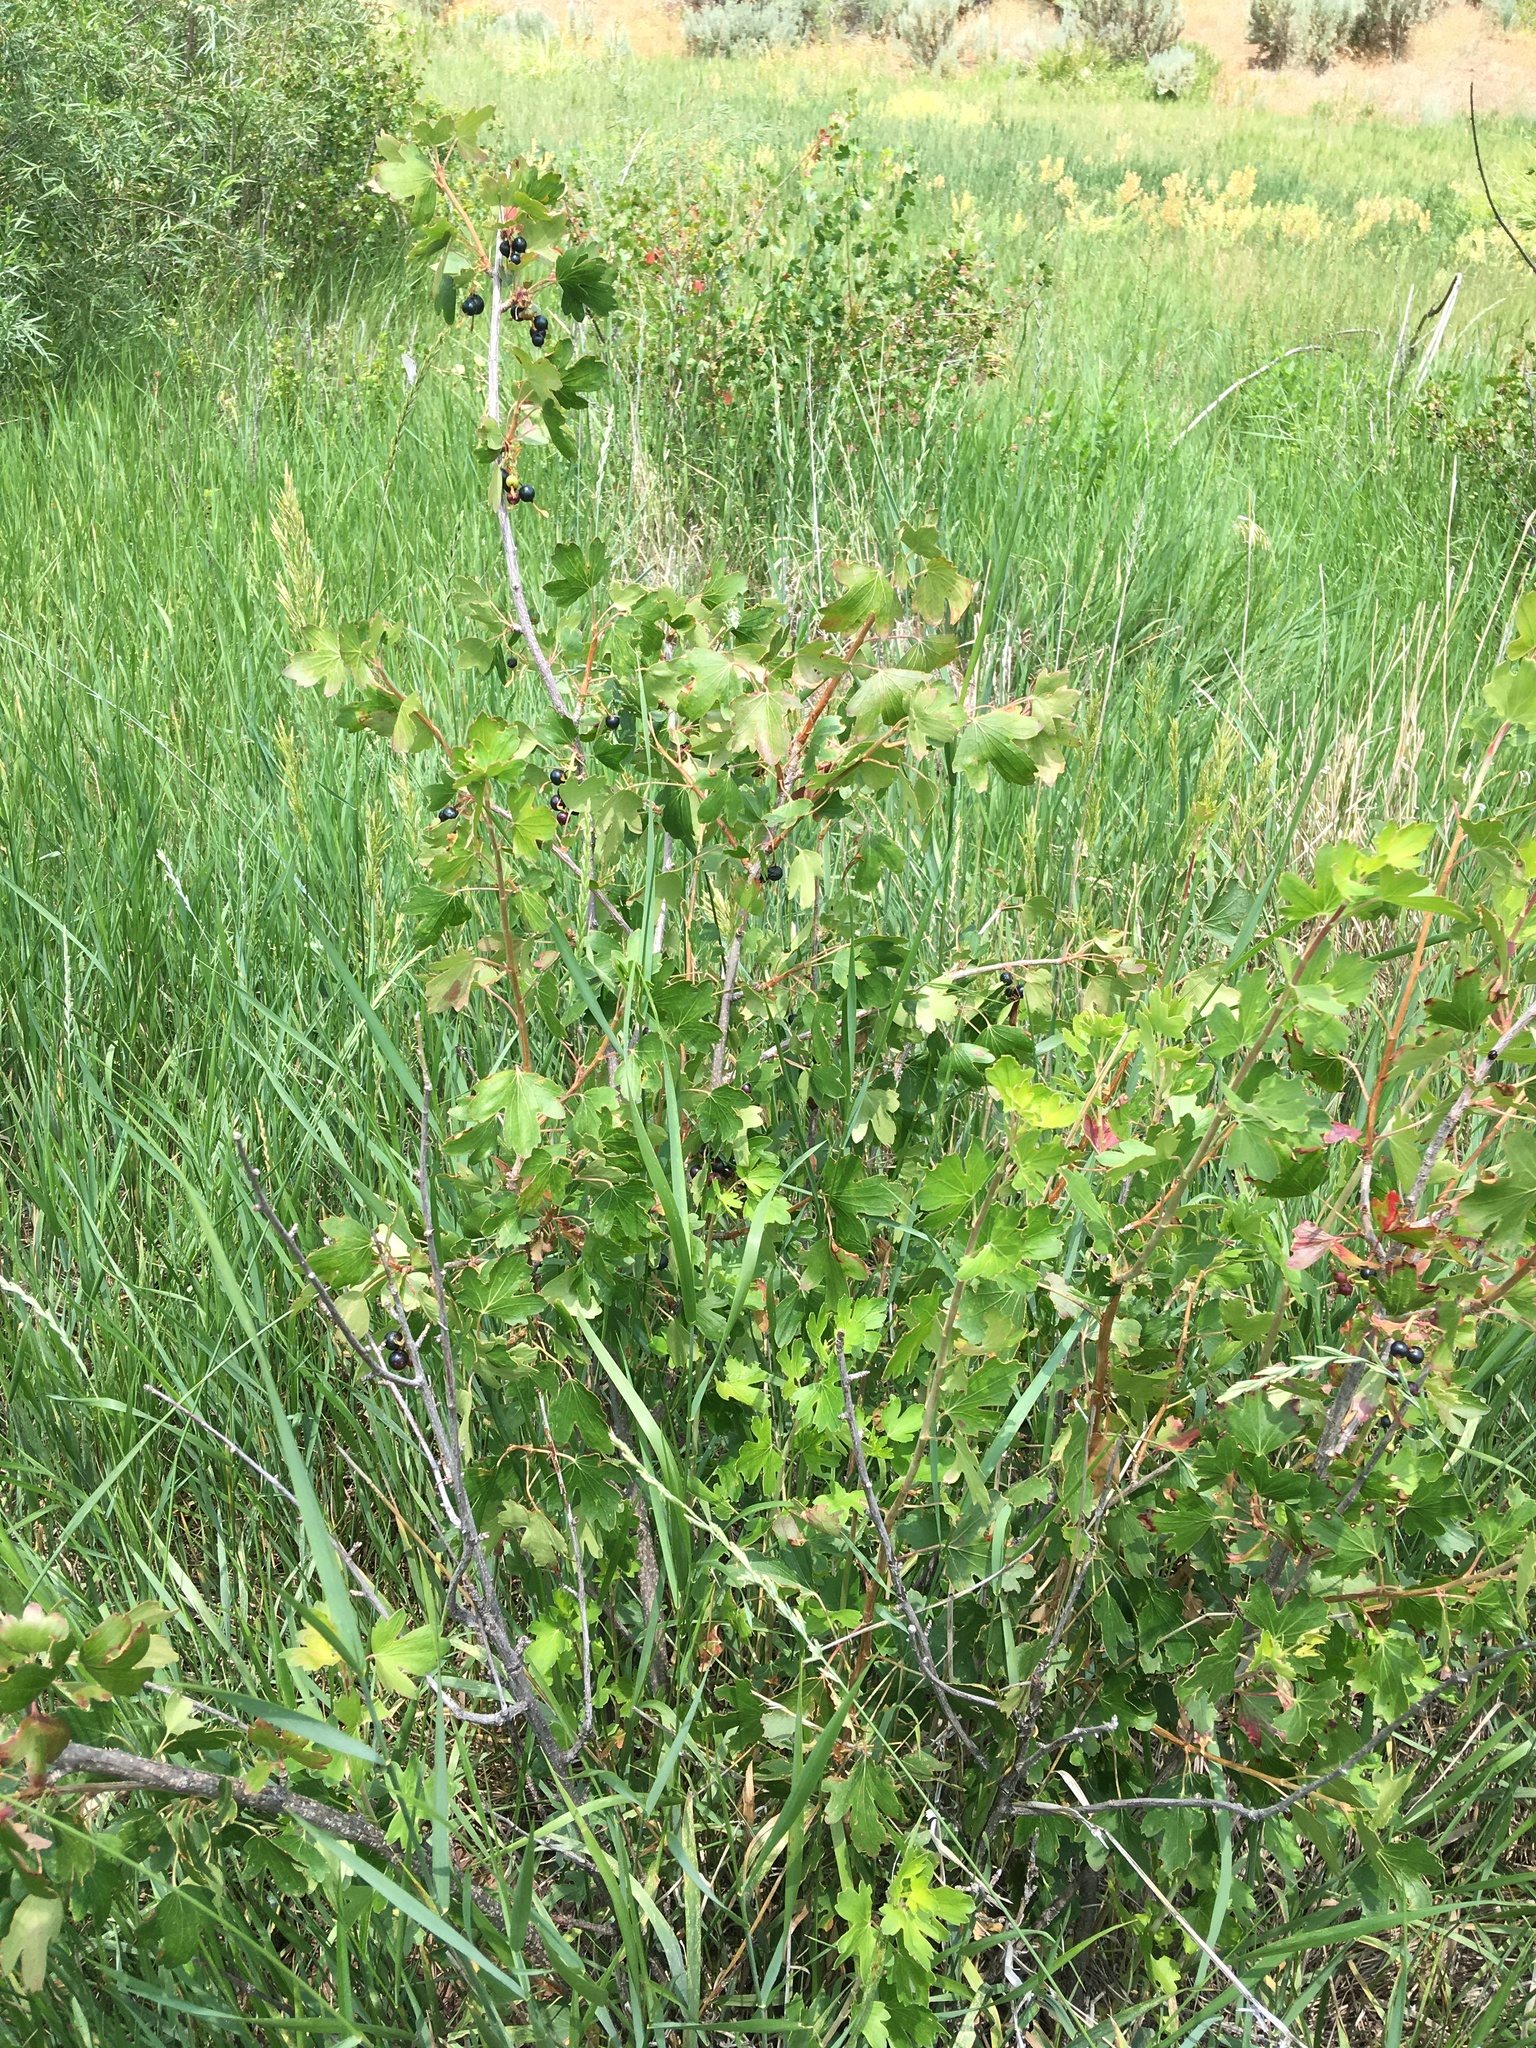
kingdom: Plantae
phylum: Tracheophyta
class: Magnoliopsida
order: Saxifragales
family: Grossulariaceae
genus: Ribes
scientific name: Ribes aureum
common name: Golden currant
